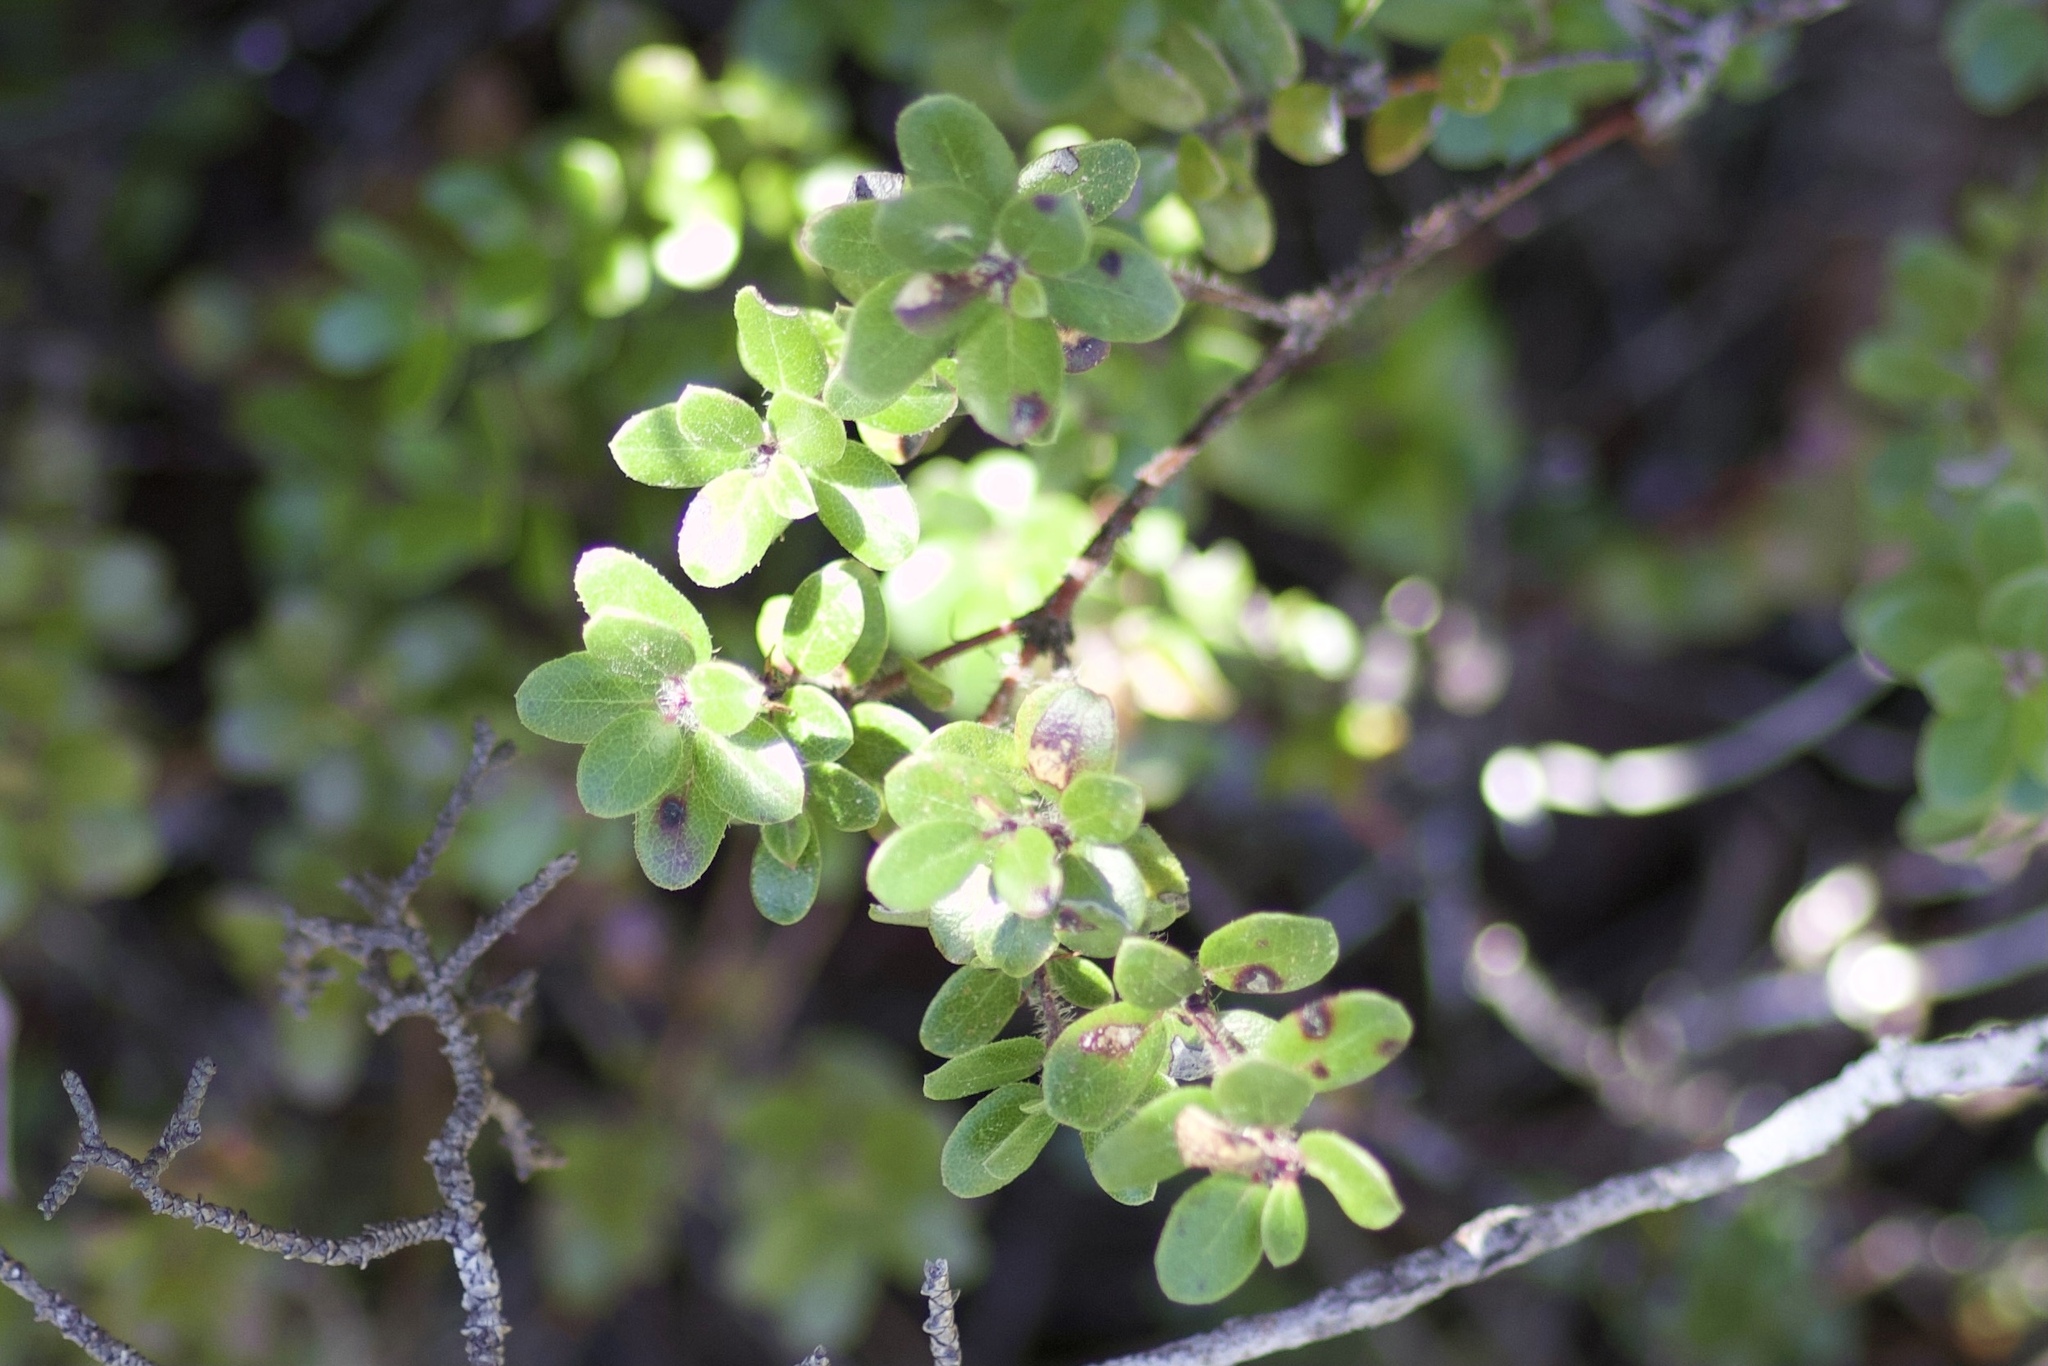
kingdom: Plantae
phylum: Tracheophyta
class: Magnoliopsida
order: Ericales
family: Ericaceae
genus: Arctostaphylos
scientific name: Arctostaphylos nummularia
